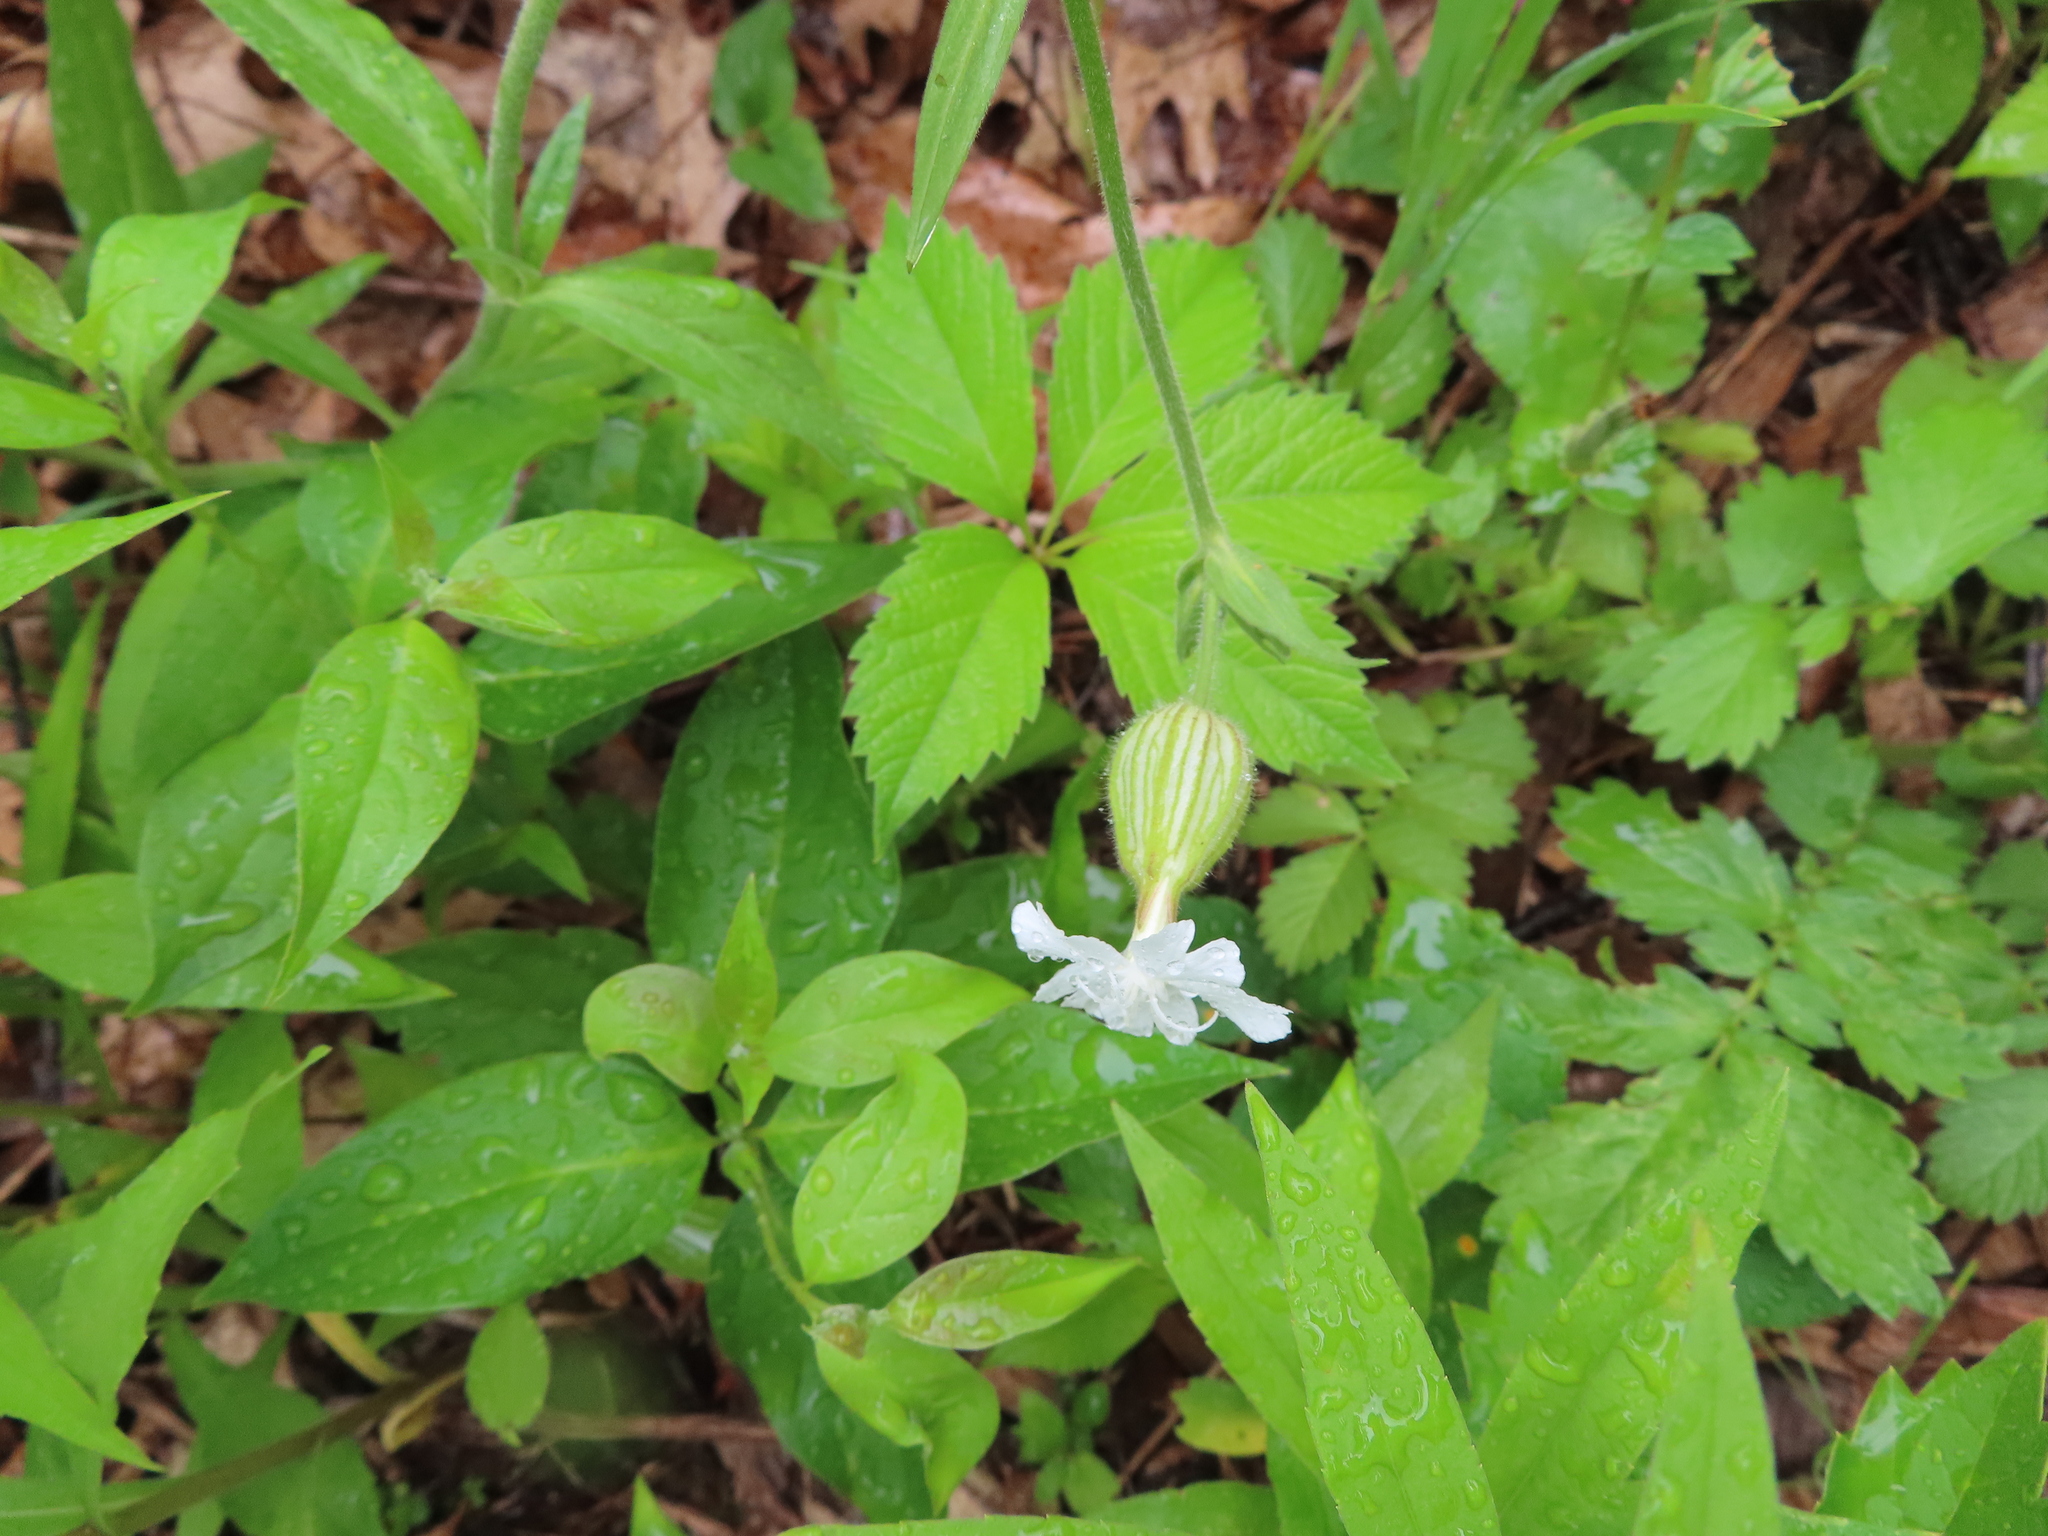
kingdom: Plantae
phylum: Tracheophyta
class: Magnoliopsida
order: Caryophyllales
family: Caryophyllaceae
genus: Silene
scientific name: Silene latifolia
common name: White campion
